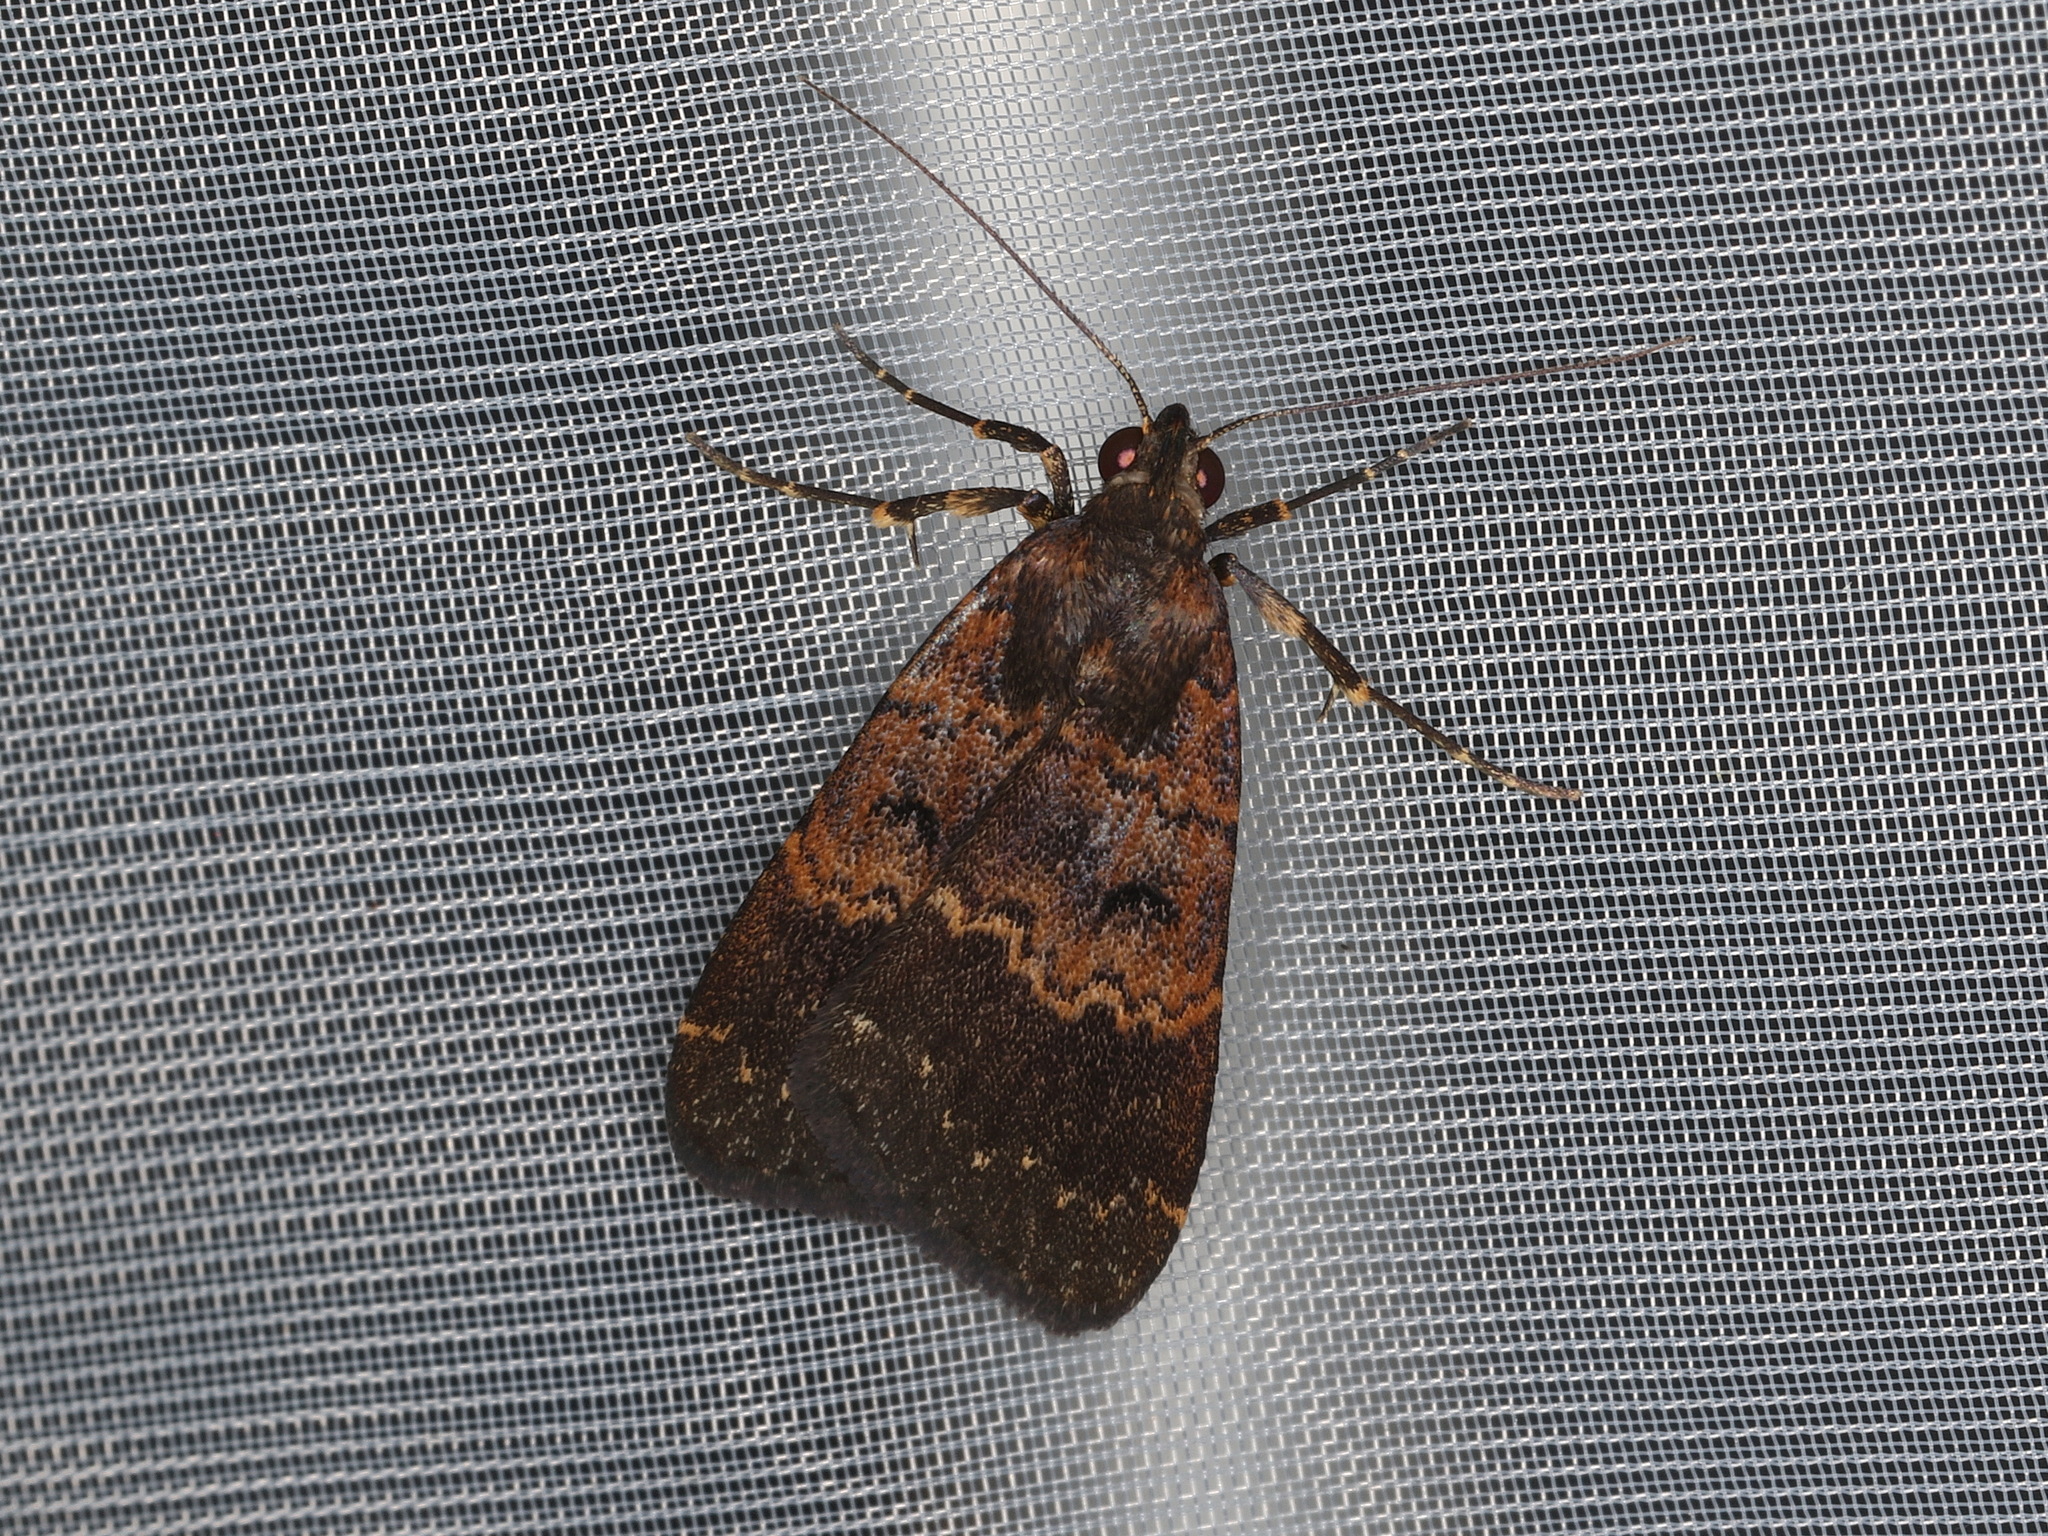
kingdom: Animalia
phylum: Arthropoda
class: Insecta
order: Lepidoptera
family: Erebidae
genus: Hydrillodes
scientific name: Hydrillodes funestalis
